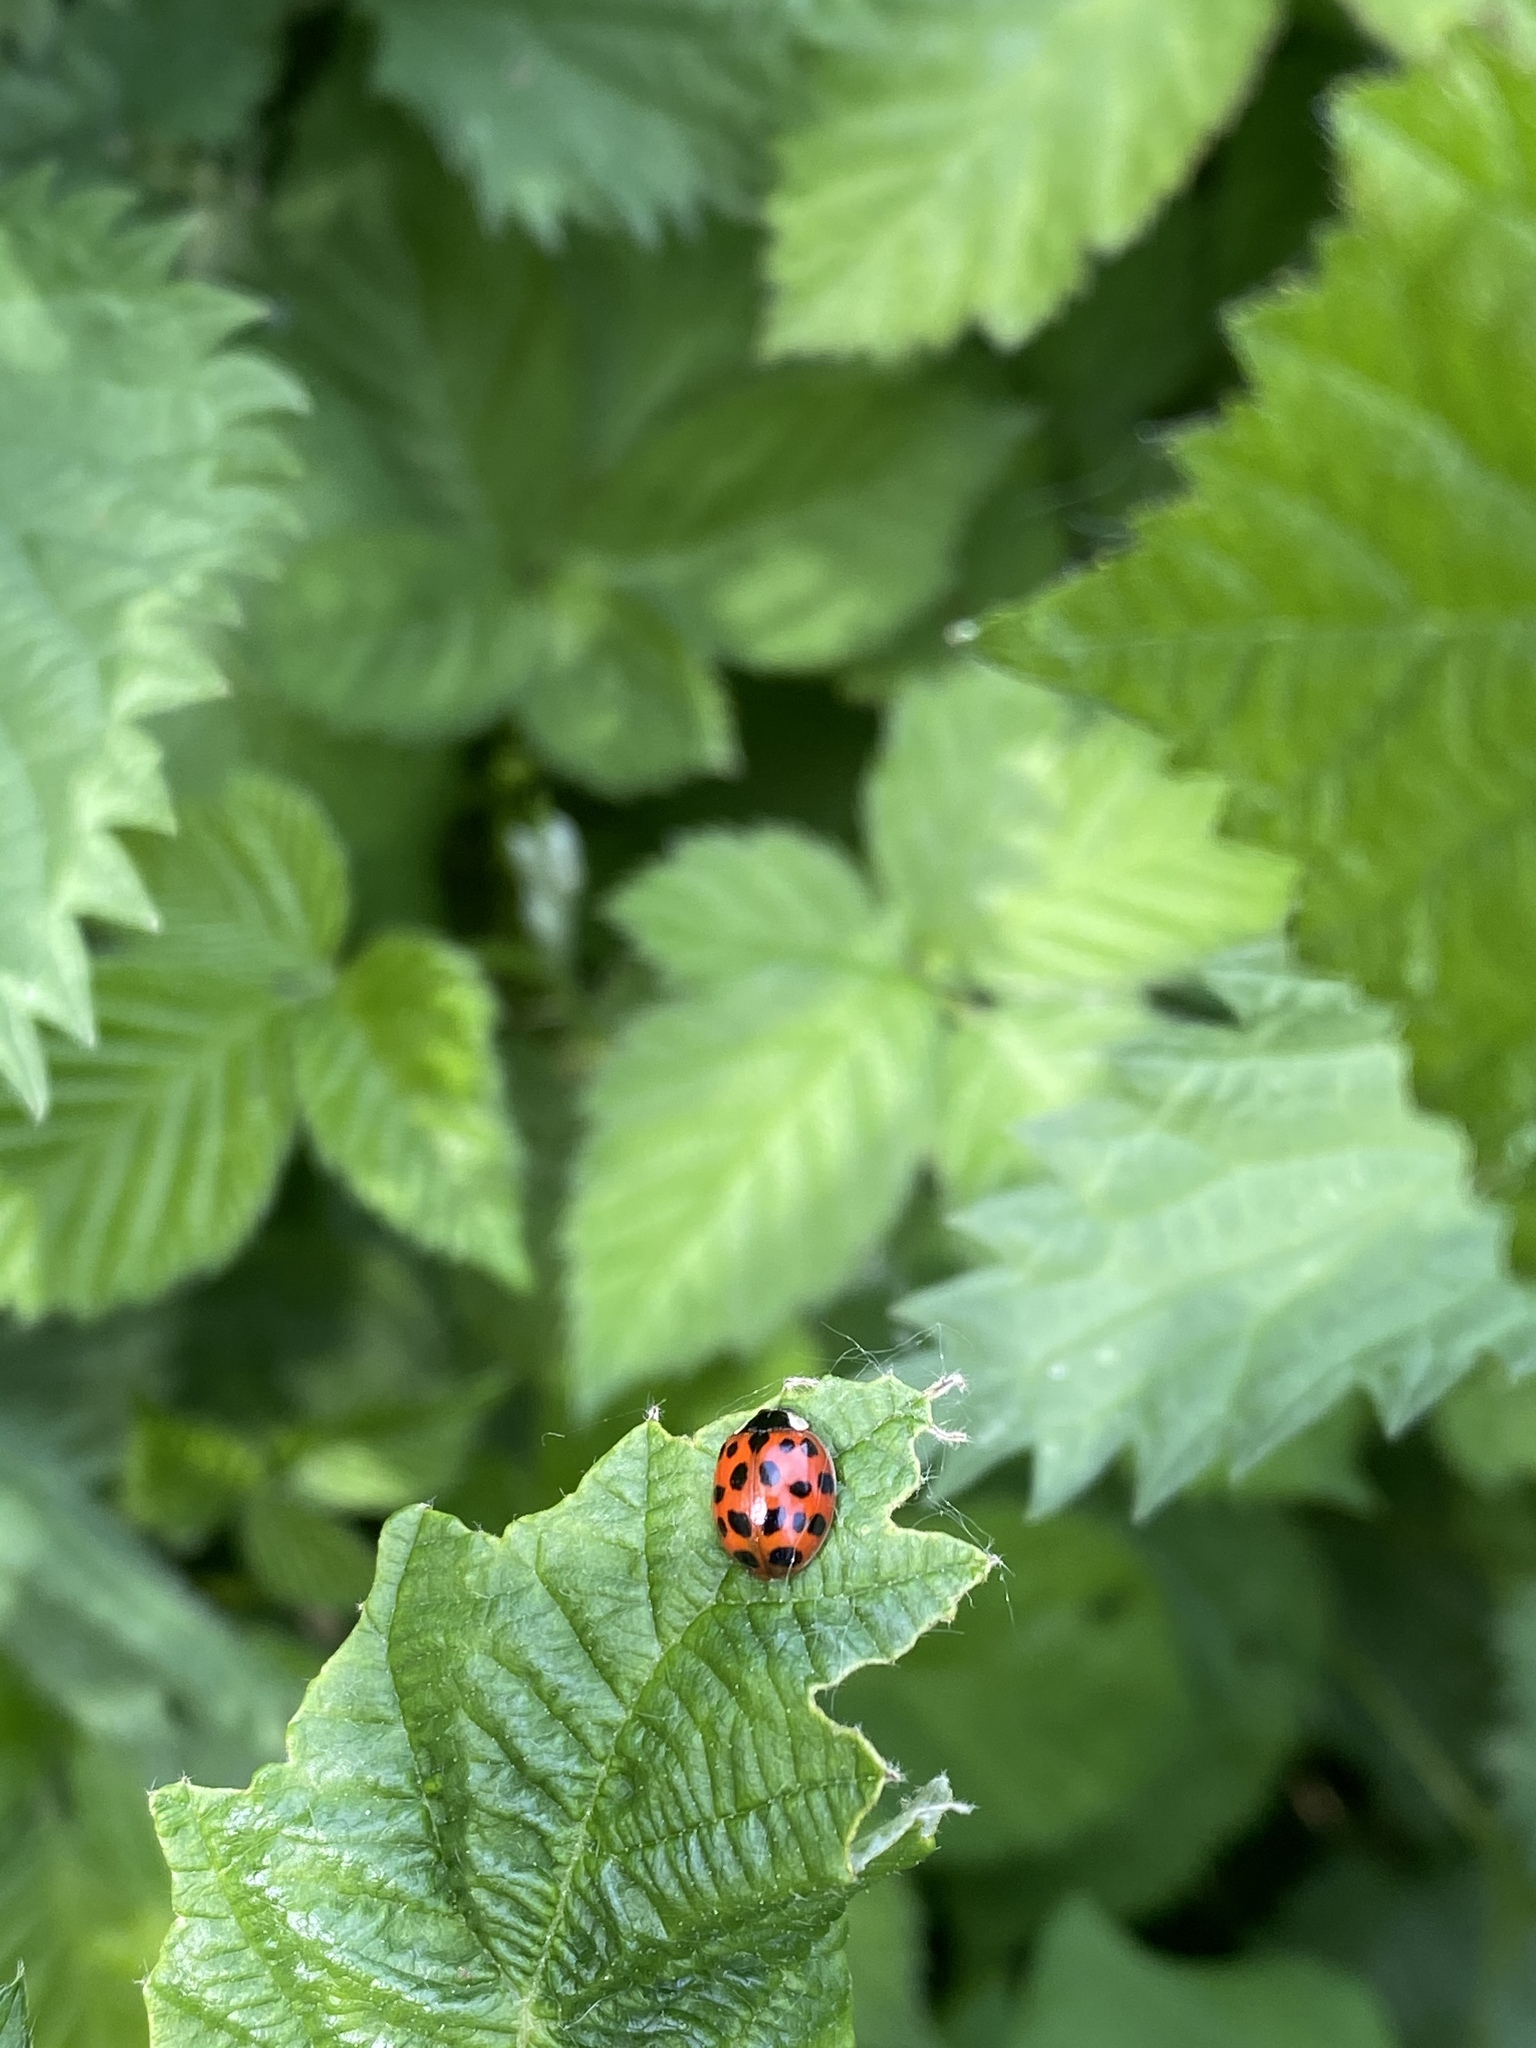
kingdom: Animalia
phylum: Arthropoda
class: Insecta
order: Coleoptera
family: Coccinellidae
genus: Harmonia
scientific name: Harmonia axyridis
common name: Harlequin ladybird
